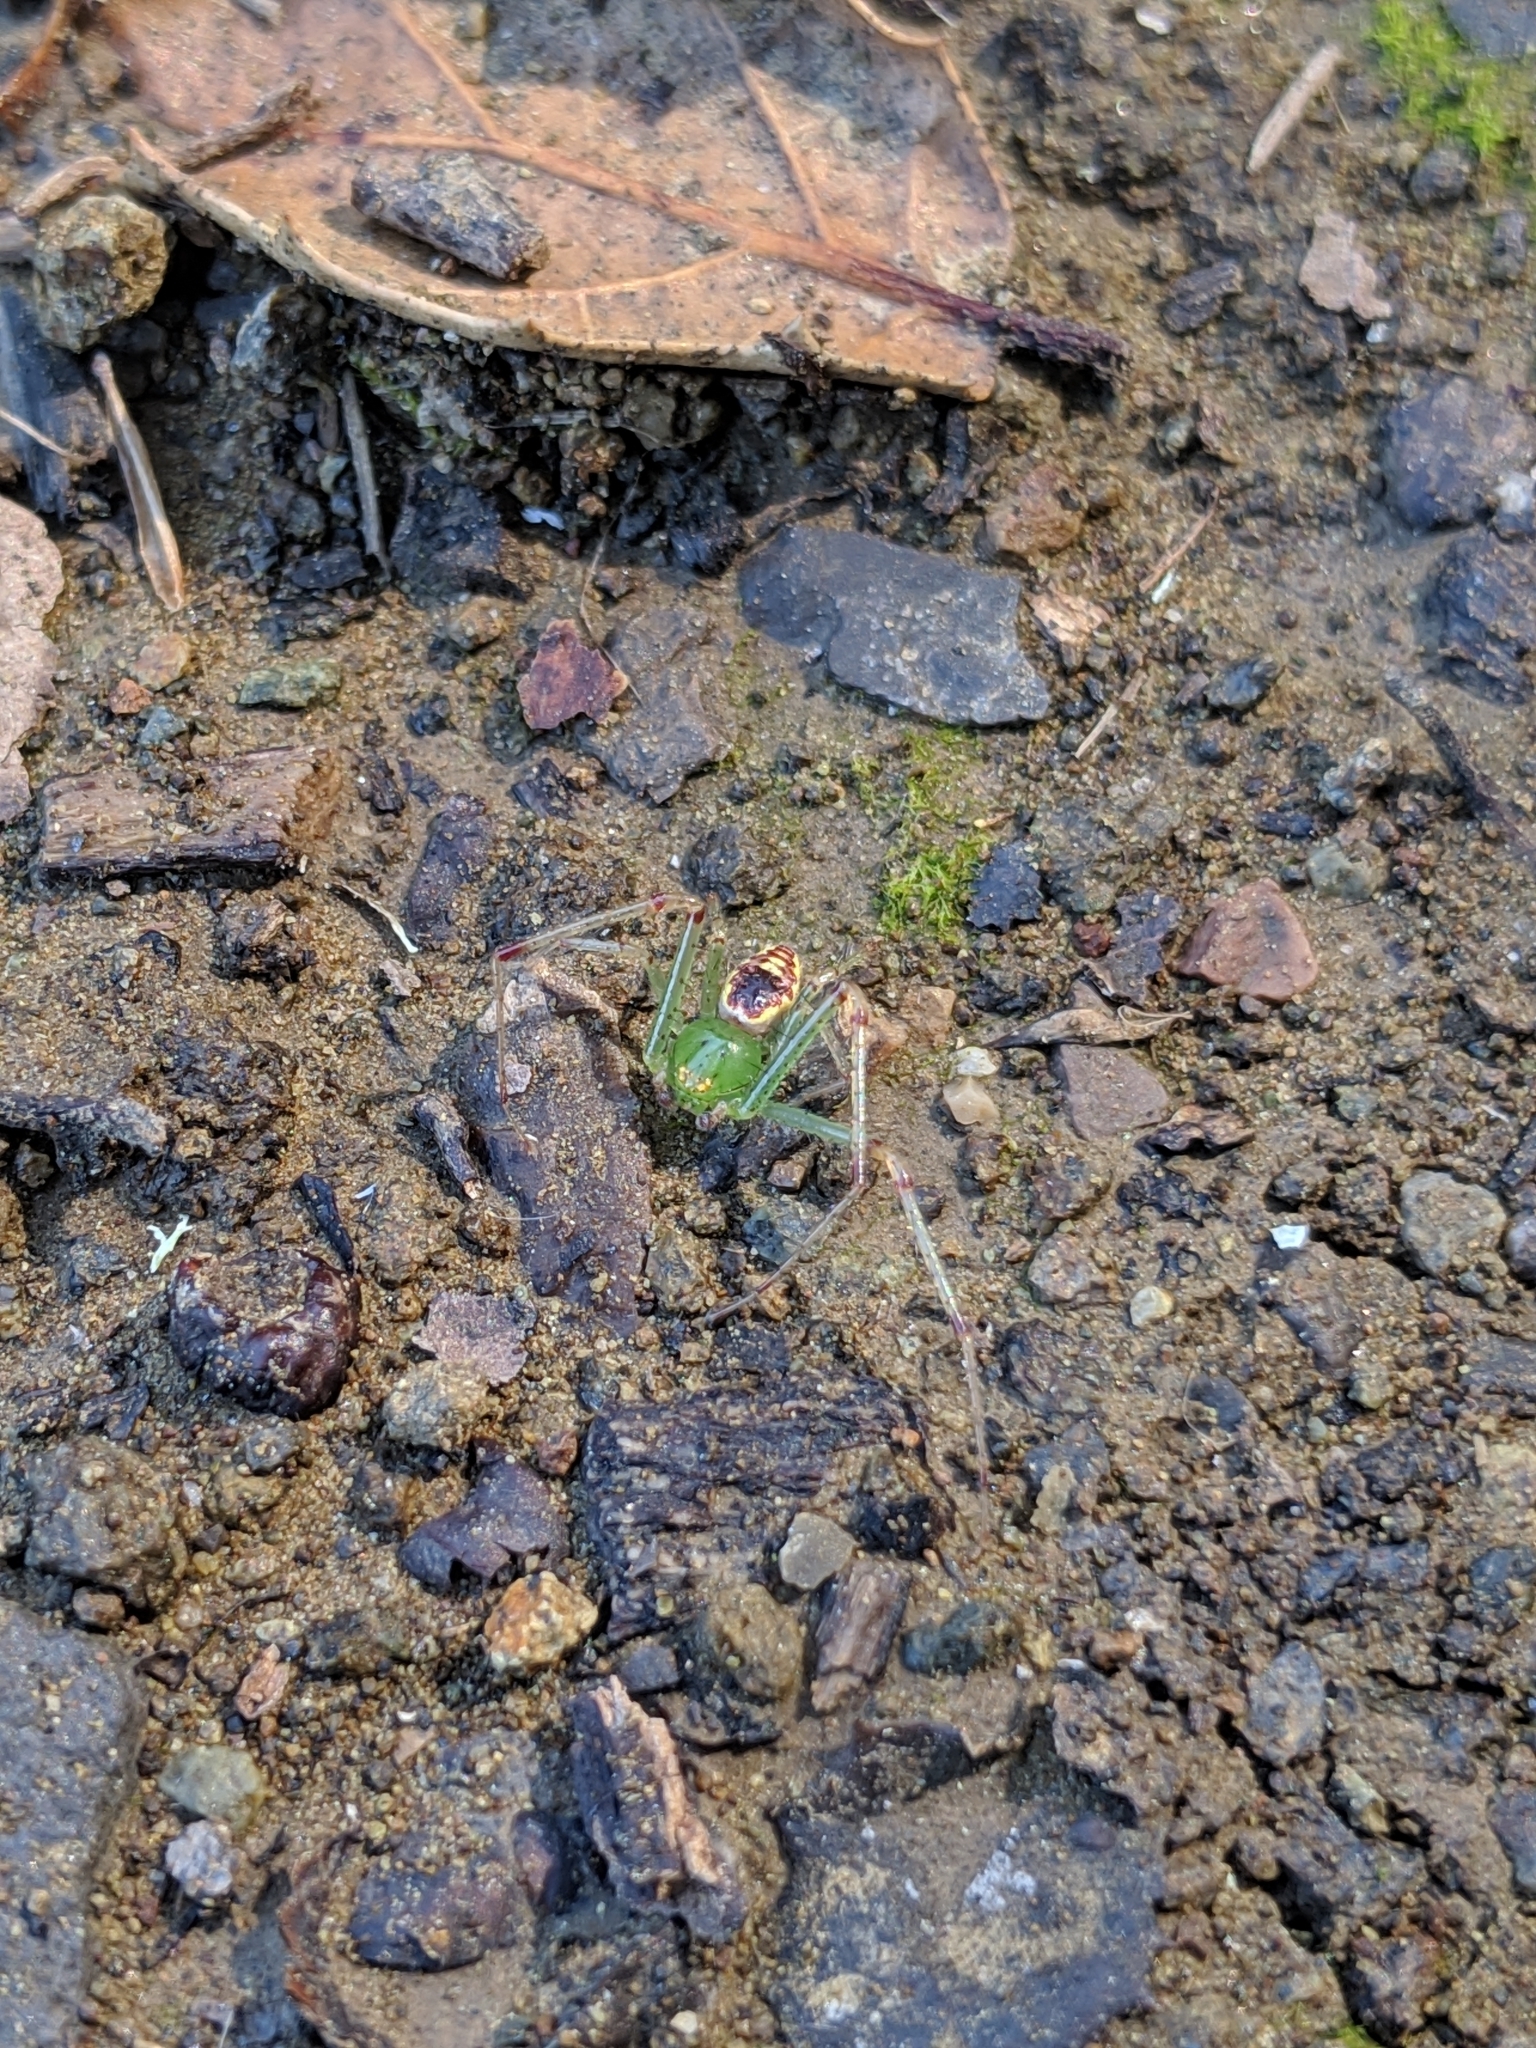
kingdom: Animalia
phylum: Arthropoda
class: Arachnida
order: Araneae
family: Thomisidae
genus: Diaea
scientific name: Diaea livens
